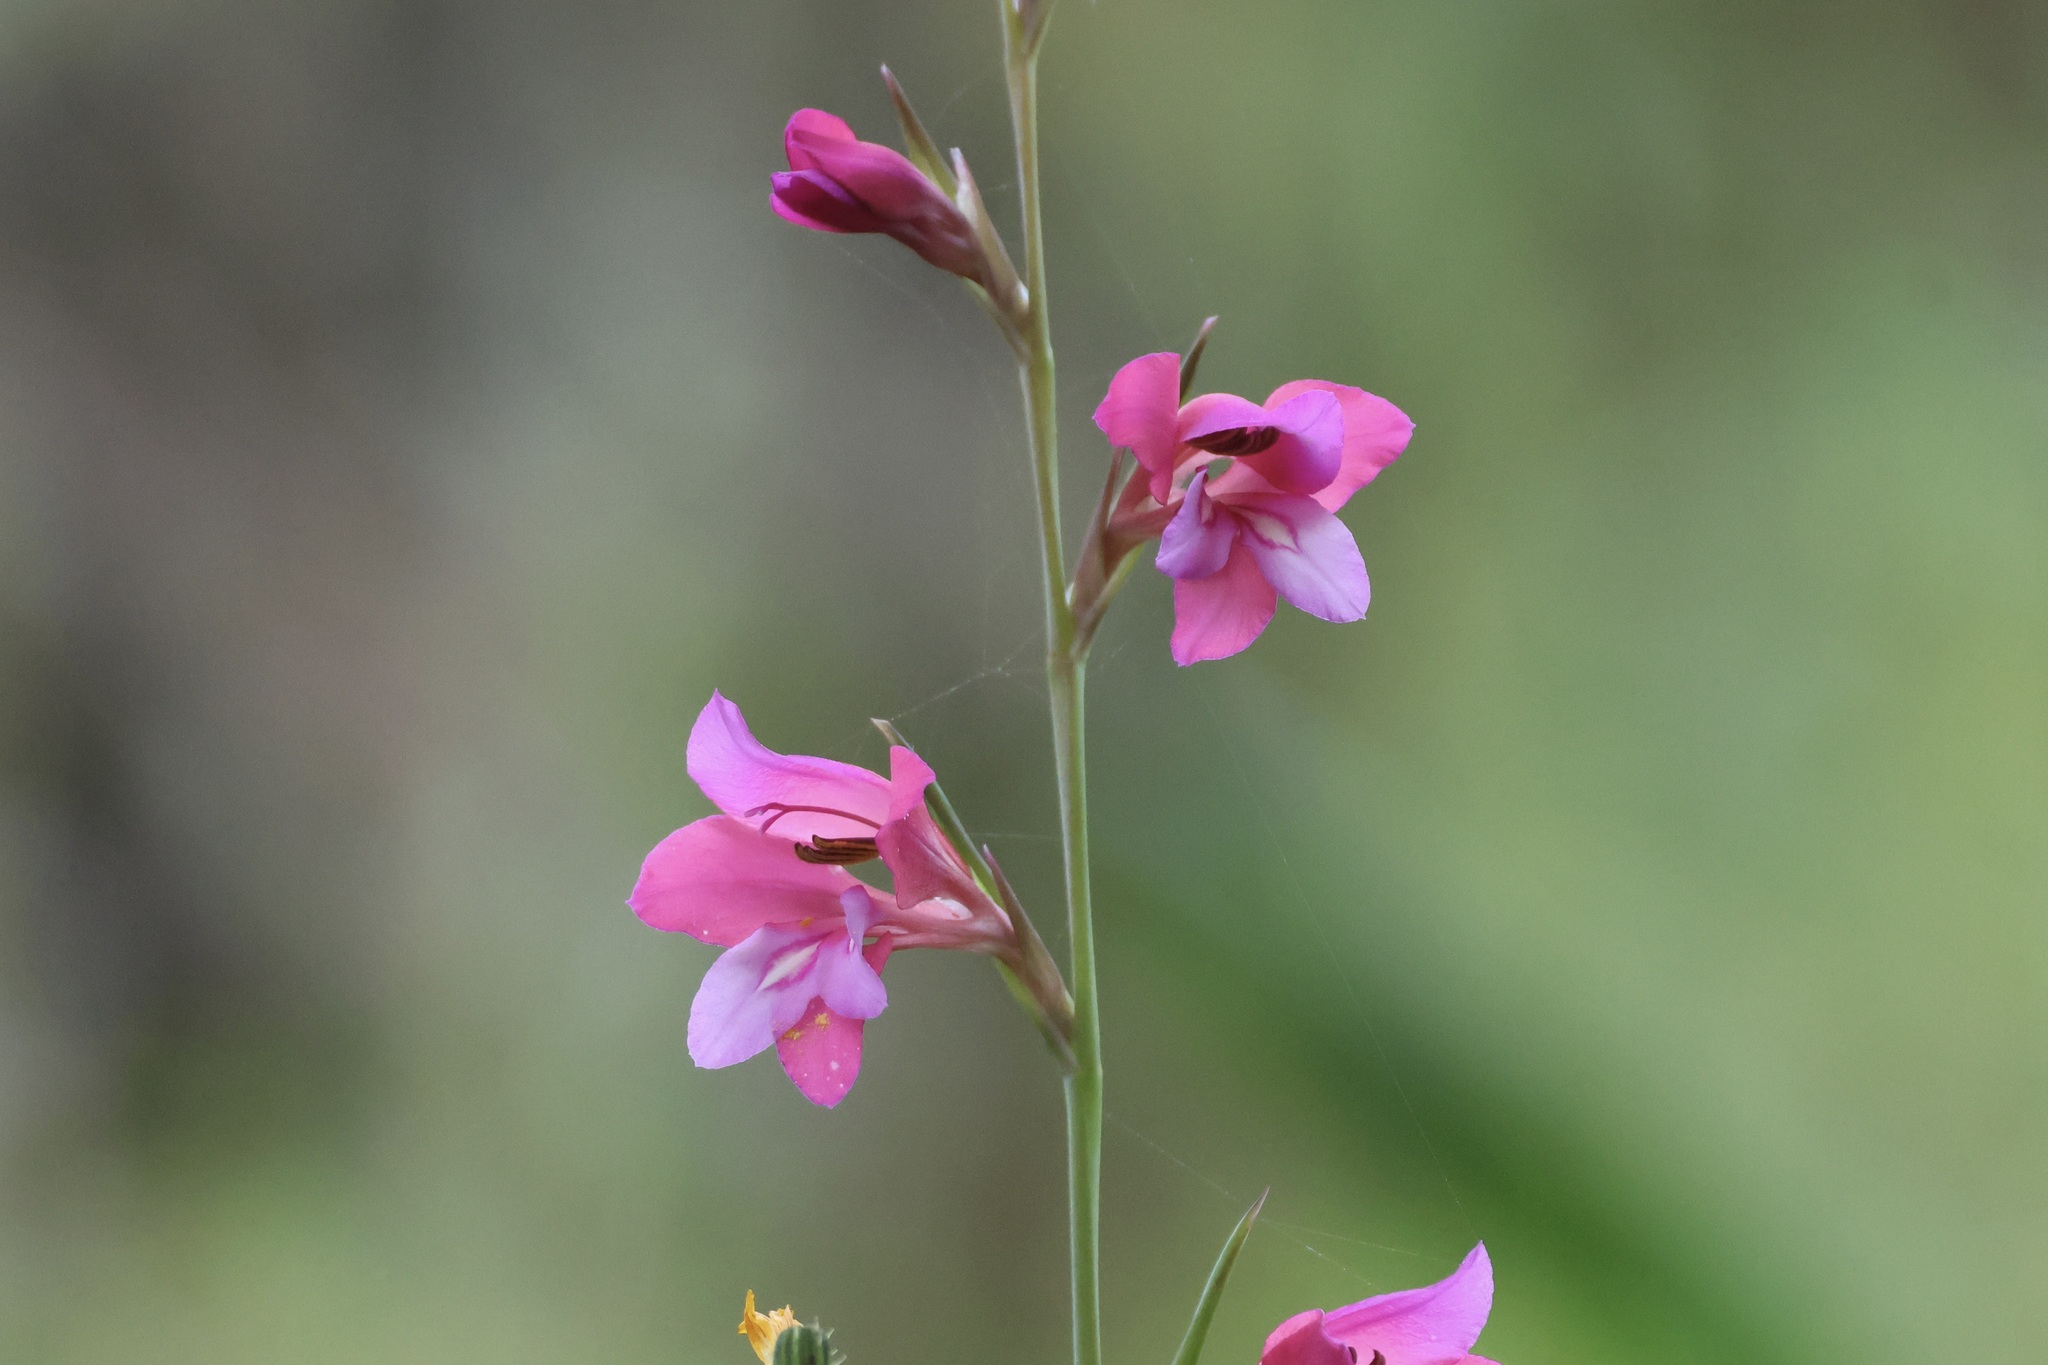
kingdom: Plantae
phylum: Tracheophyta
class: Liliopsida
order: Asparagales
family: Iridaceae
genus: Gladiolus
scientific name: Gladiolus illyricus
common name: Wild gladiolus
